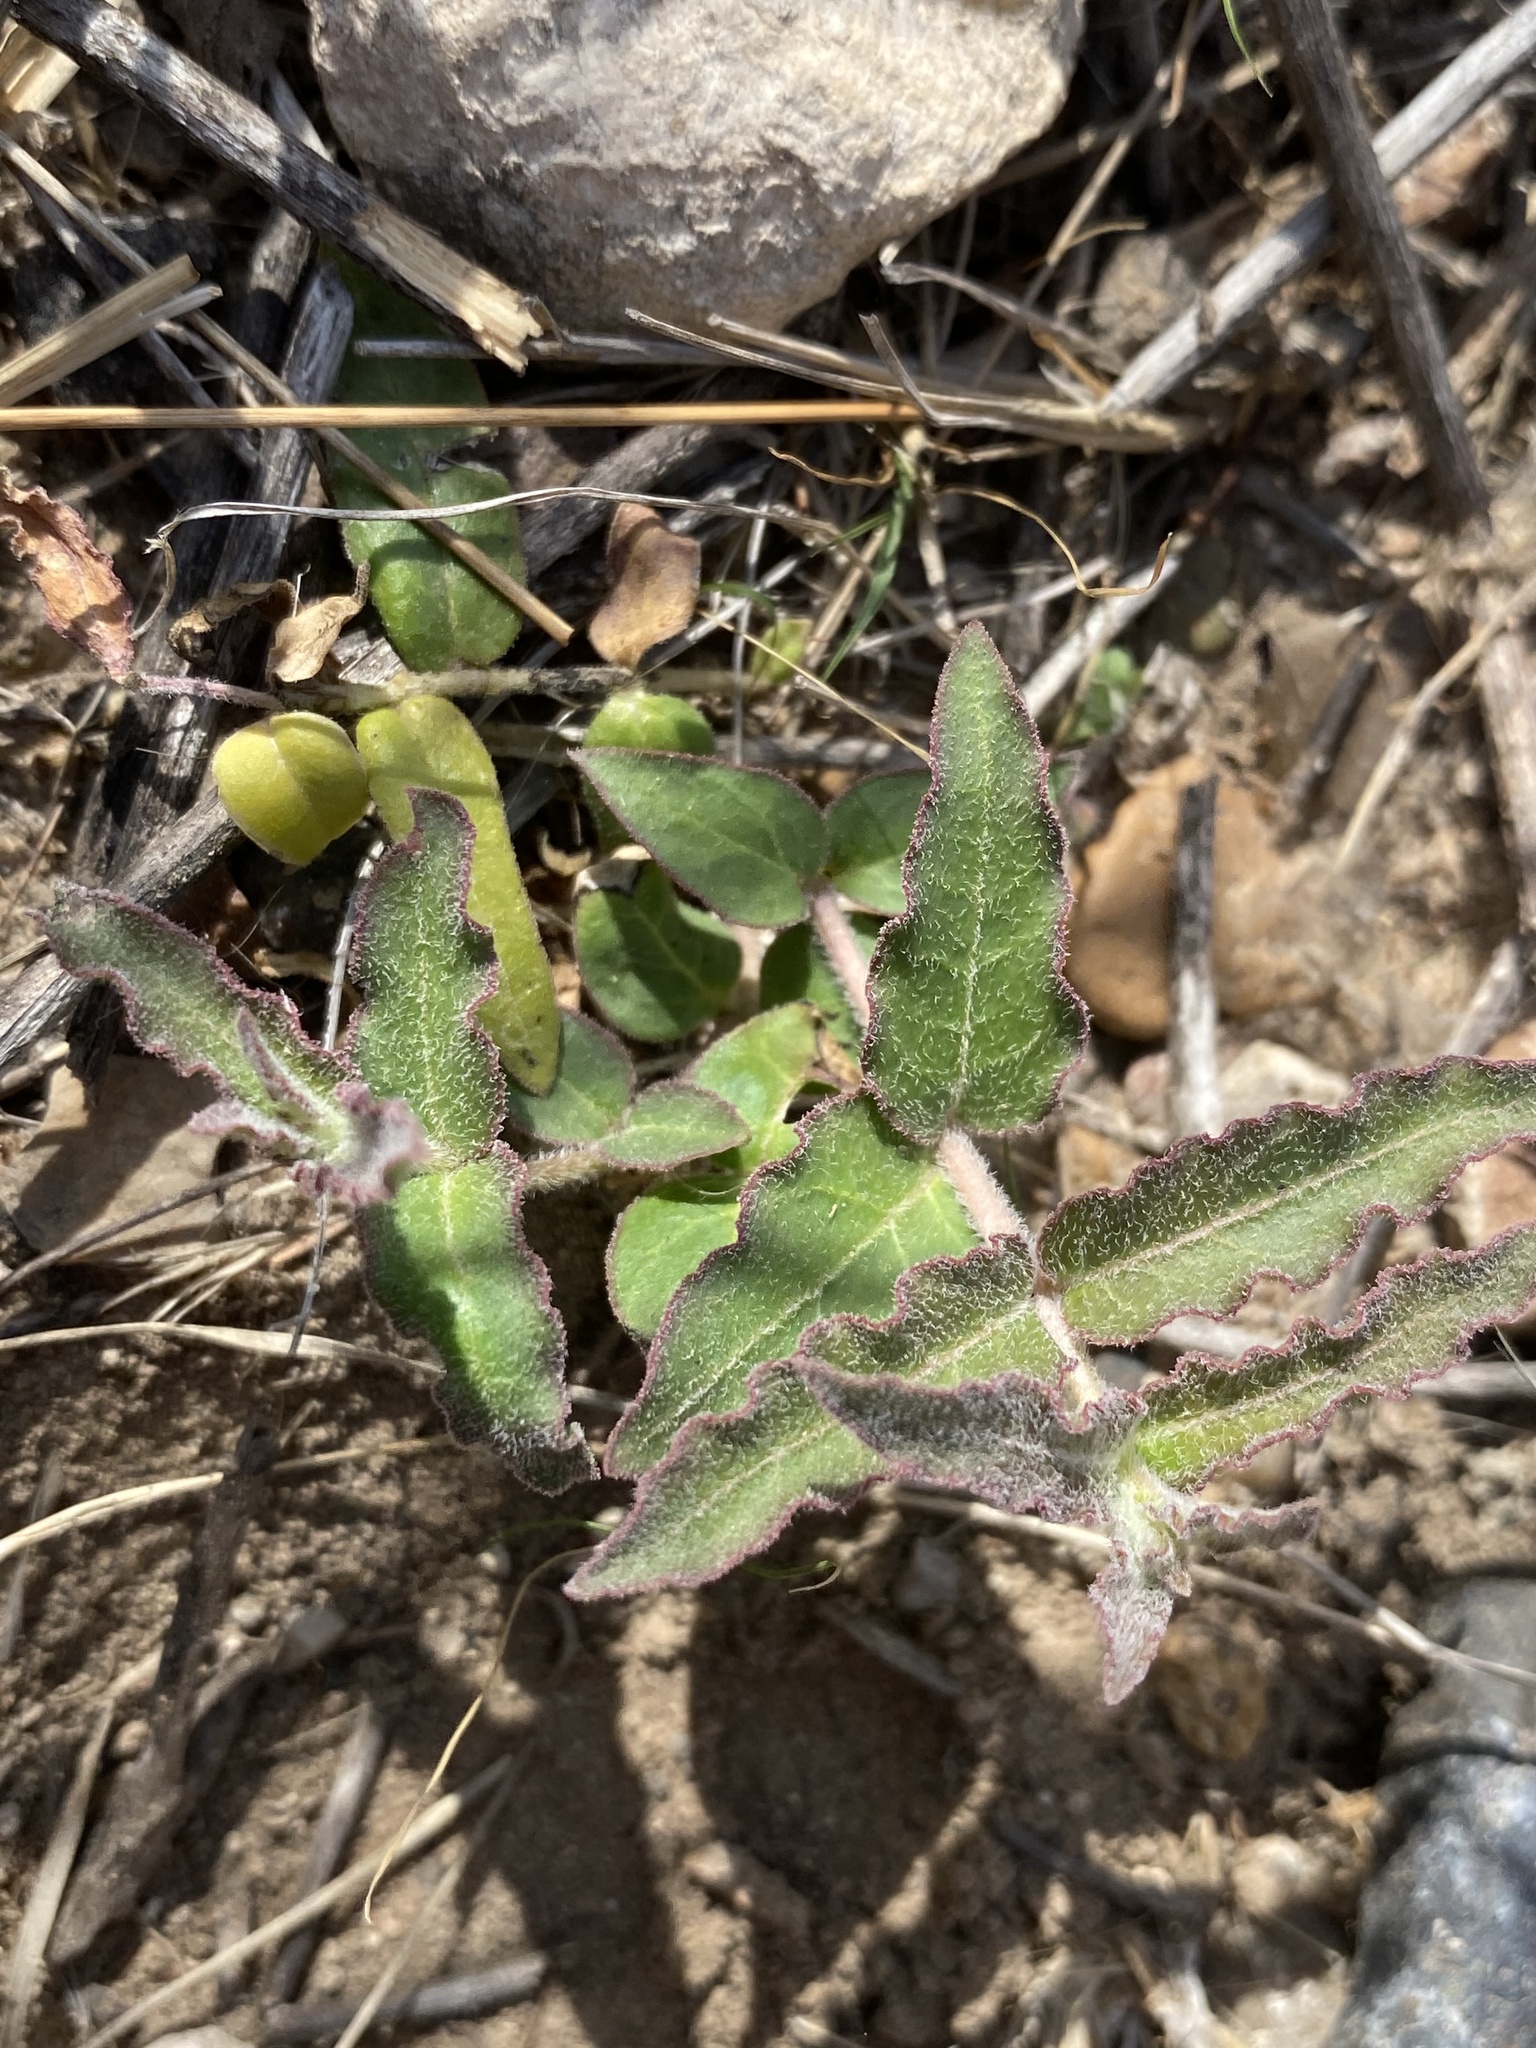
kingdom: Plantae
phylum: Tracheophyta
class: Magnoliopsida
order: Gentianales
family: Apocynaceae
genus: Asclepias
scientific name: Asclepias prostrata
